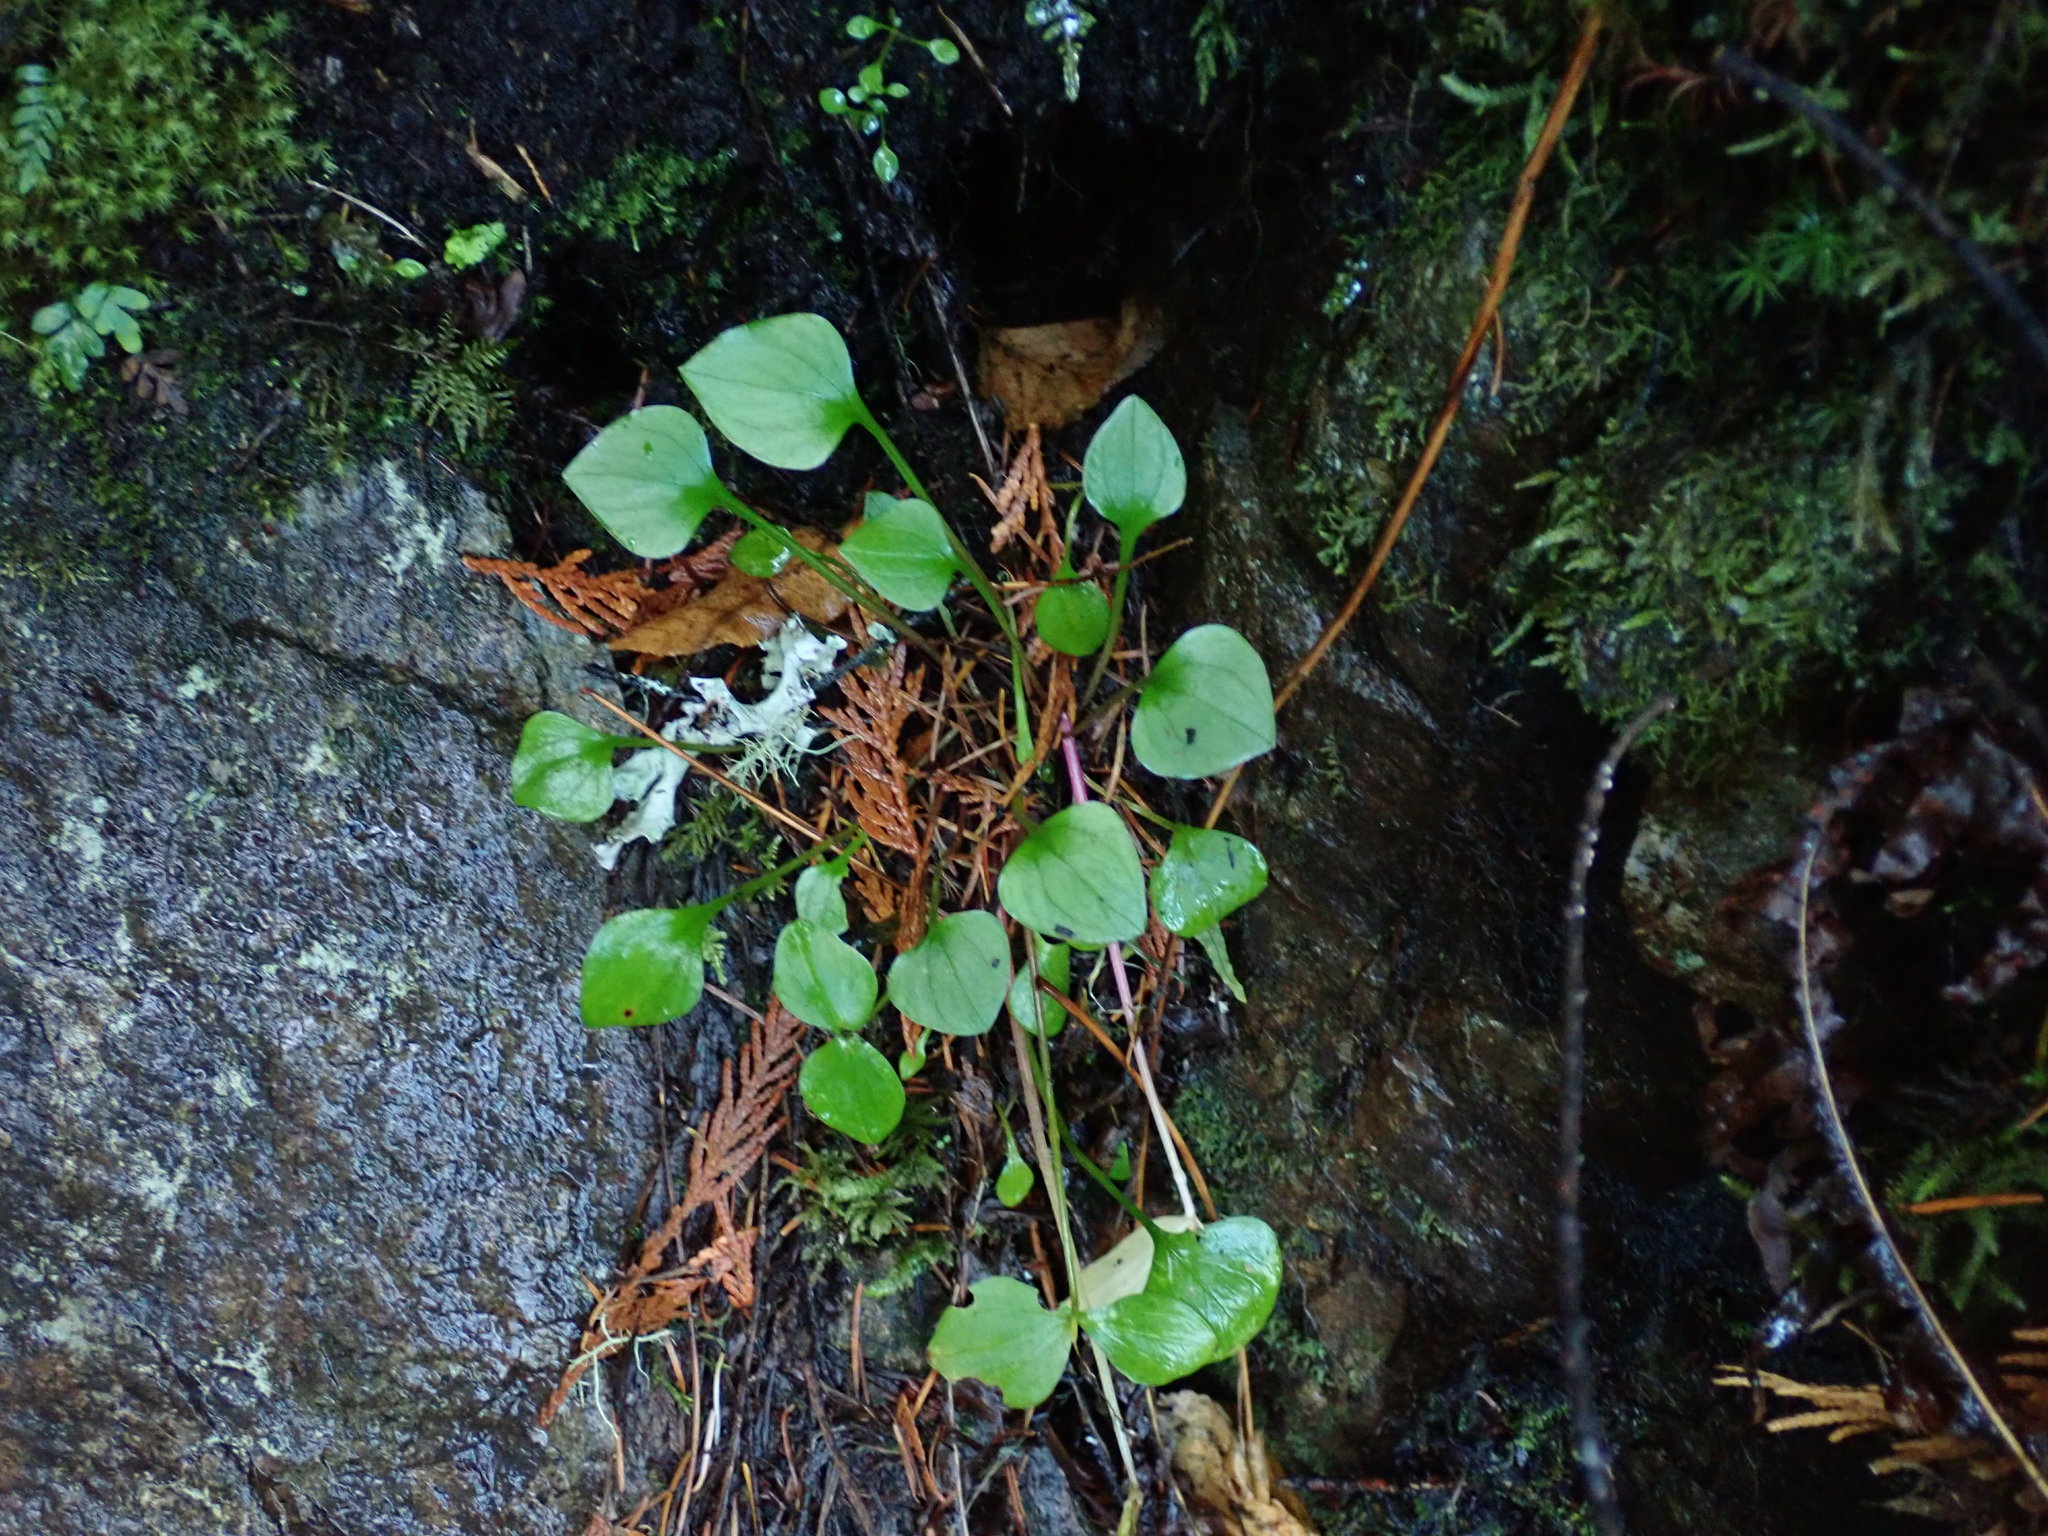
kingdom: Plantae
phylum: Tracheophyta
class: Magnoliopsida
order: Caryophyllales
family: Montiaceae
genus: Claytonia
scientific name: Claytonia sibirica
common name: Pink purslane
